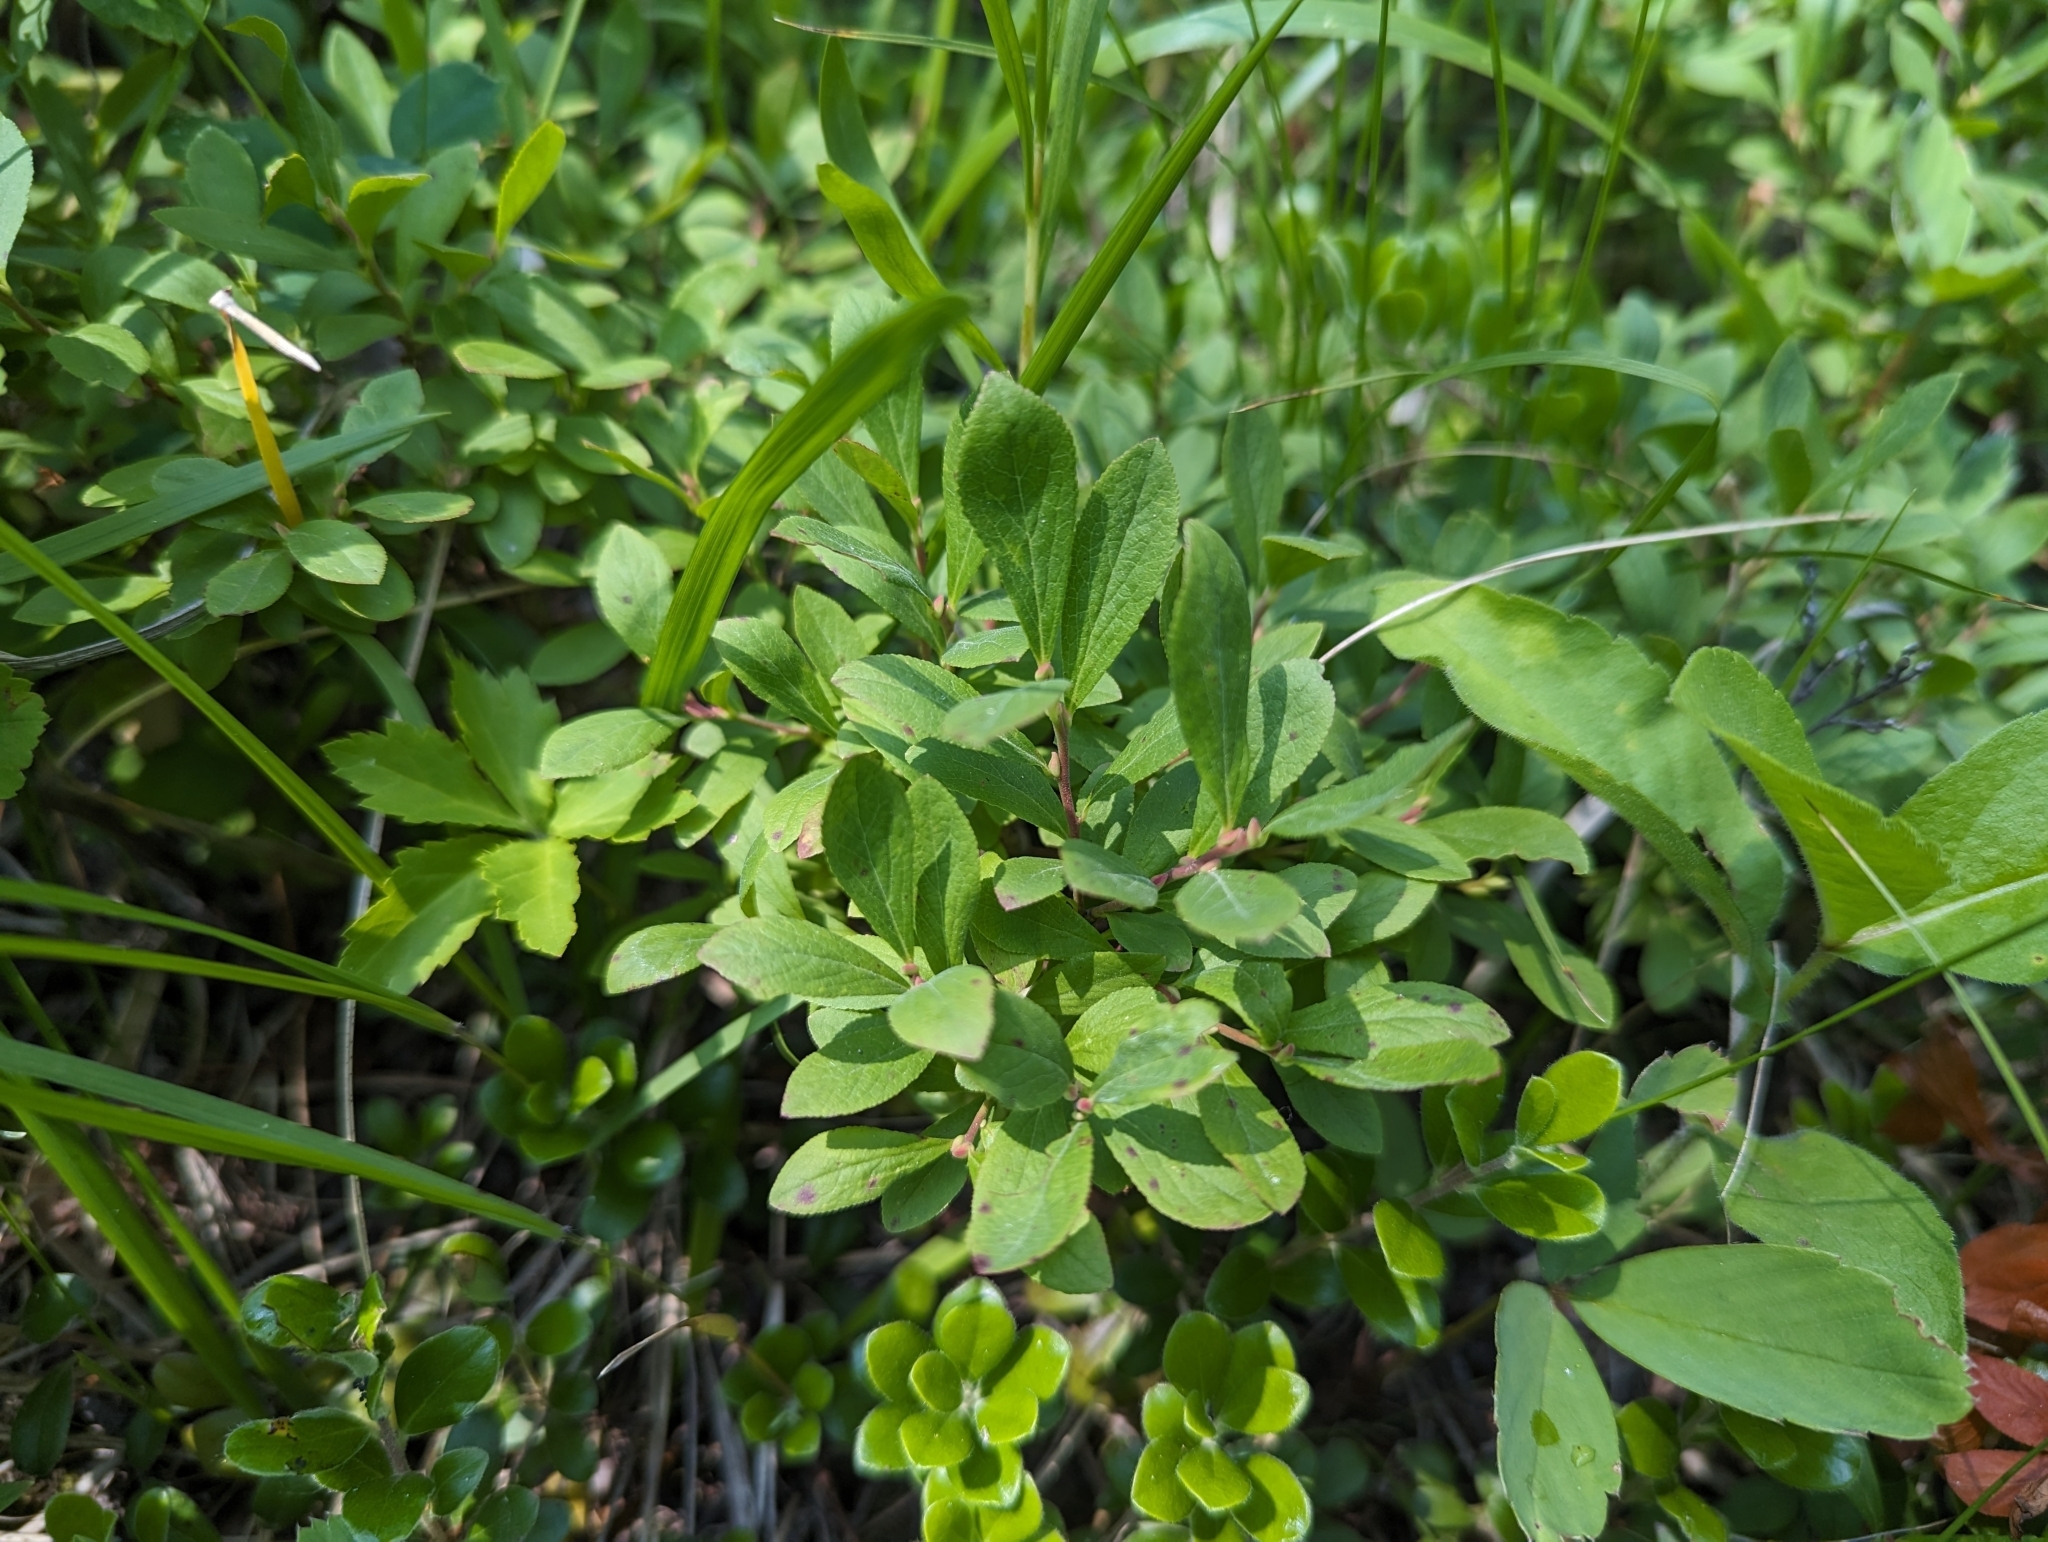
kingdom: Plantae
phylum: Tracheophyta
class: Magnoliopsida
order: Ericales
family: Ericaceae
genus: Vaccinium
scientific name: Vaccinium cespitosum
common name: Dwarf bilberry
